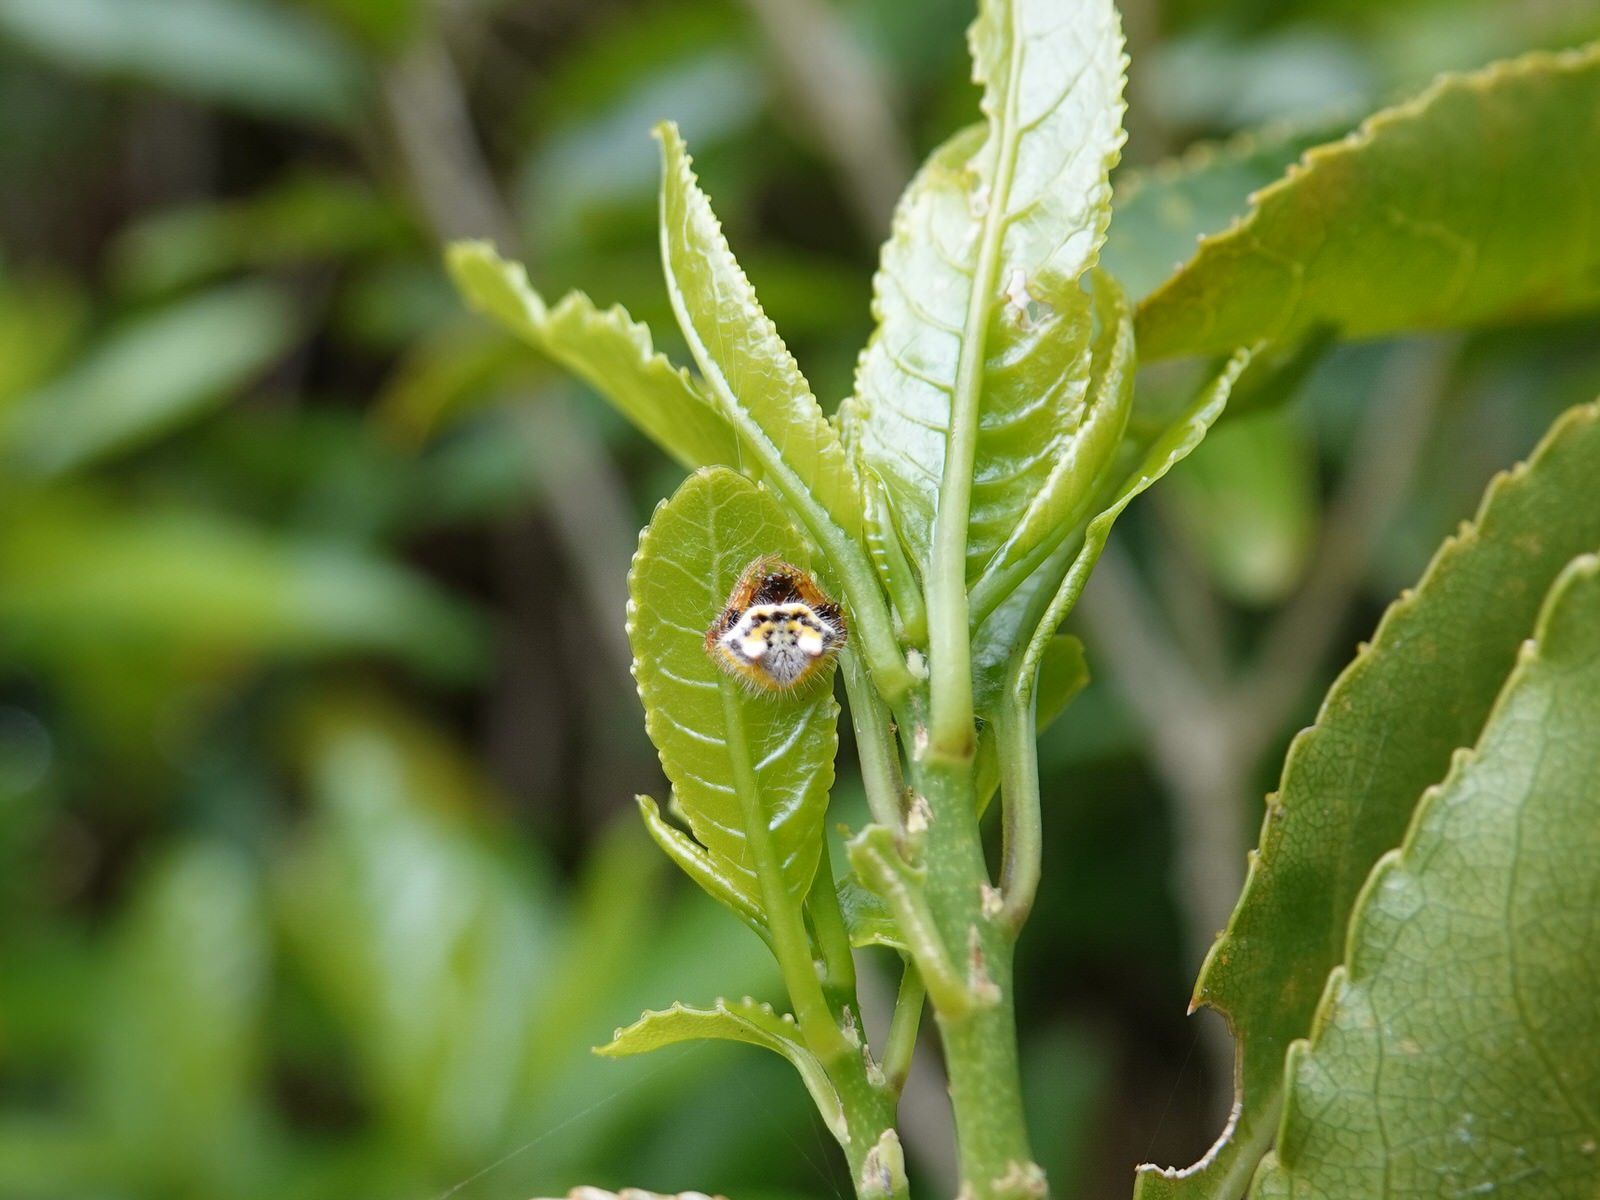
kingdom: Animalia
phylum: Arthropoda
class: Arachnida
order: Araneae
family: Araneidae
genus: Poecilopachys
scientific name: Poecilopachys australasia
